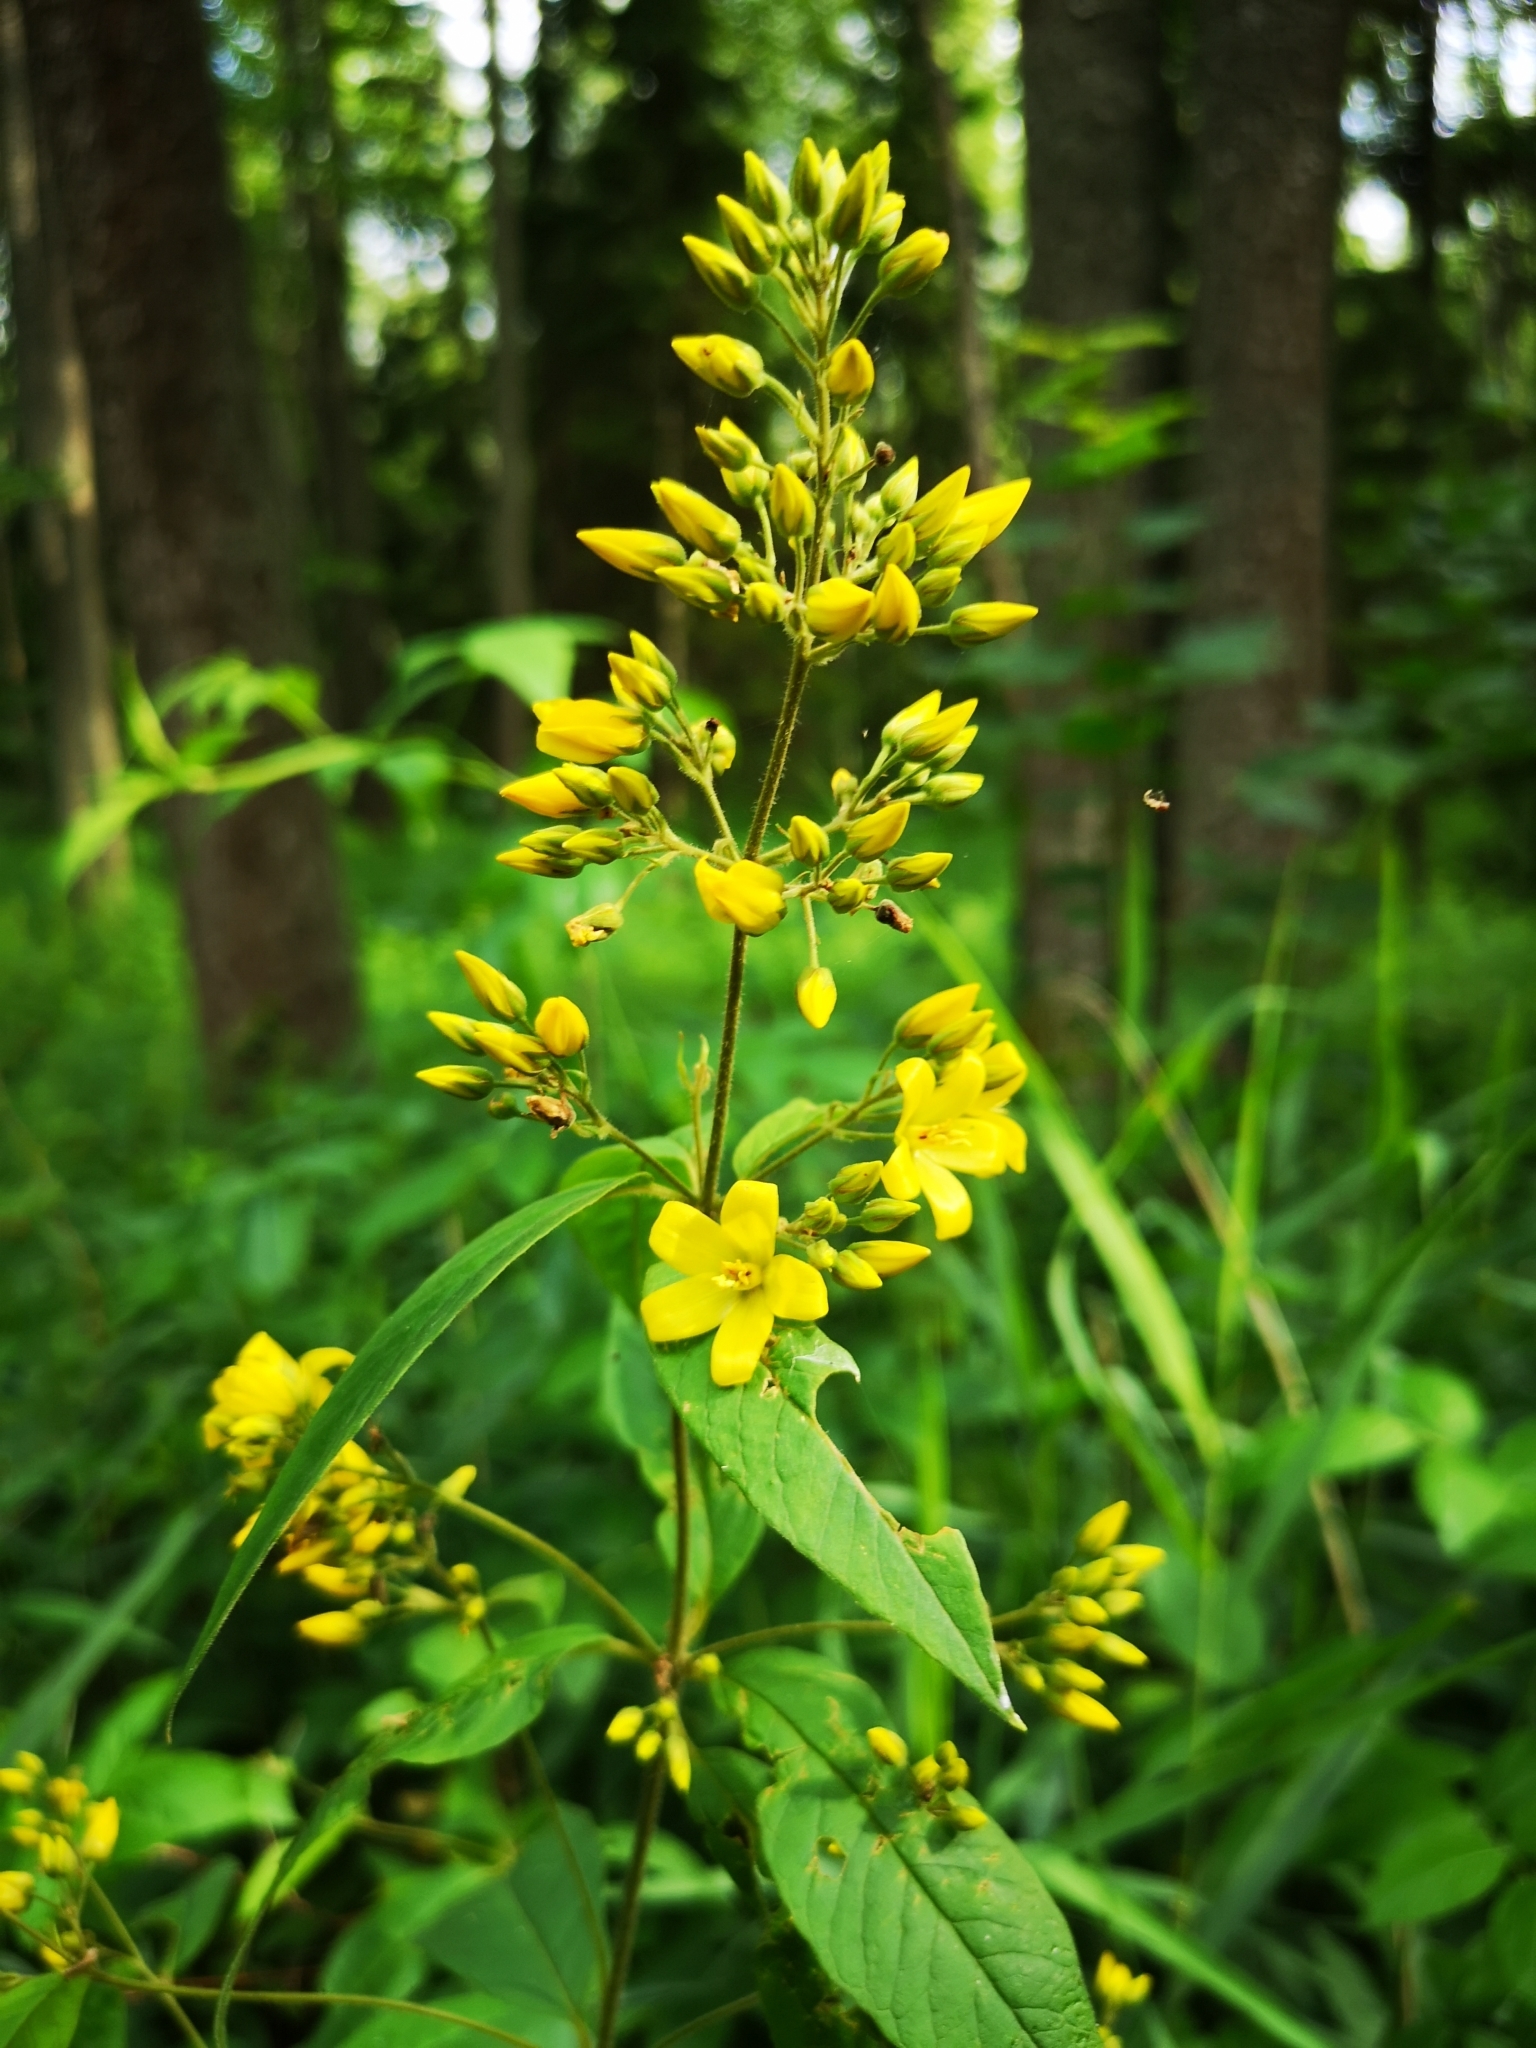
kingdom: Plantae
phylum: Tracheophyta
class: Magnoliopsida
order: Ericales
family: Primulaceae
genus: Lysimachia
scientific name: Lysimachia vulgaris
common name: Yellow loosestrife
